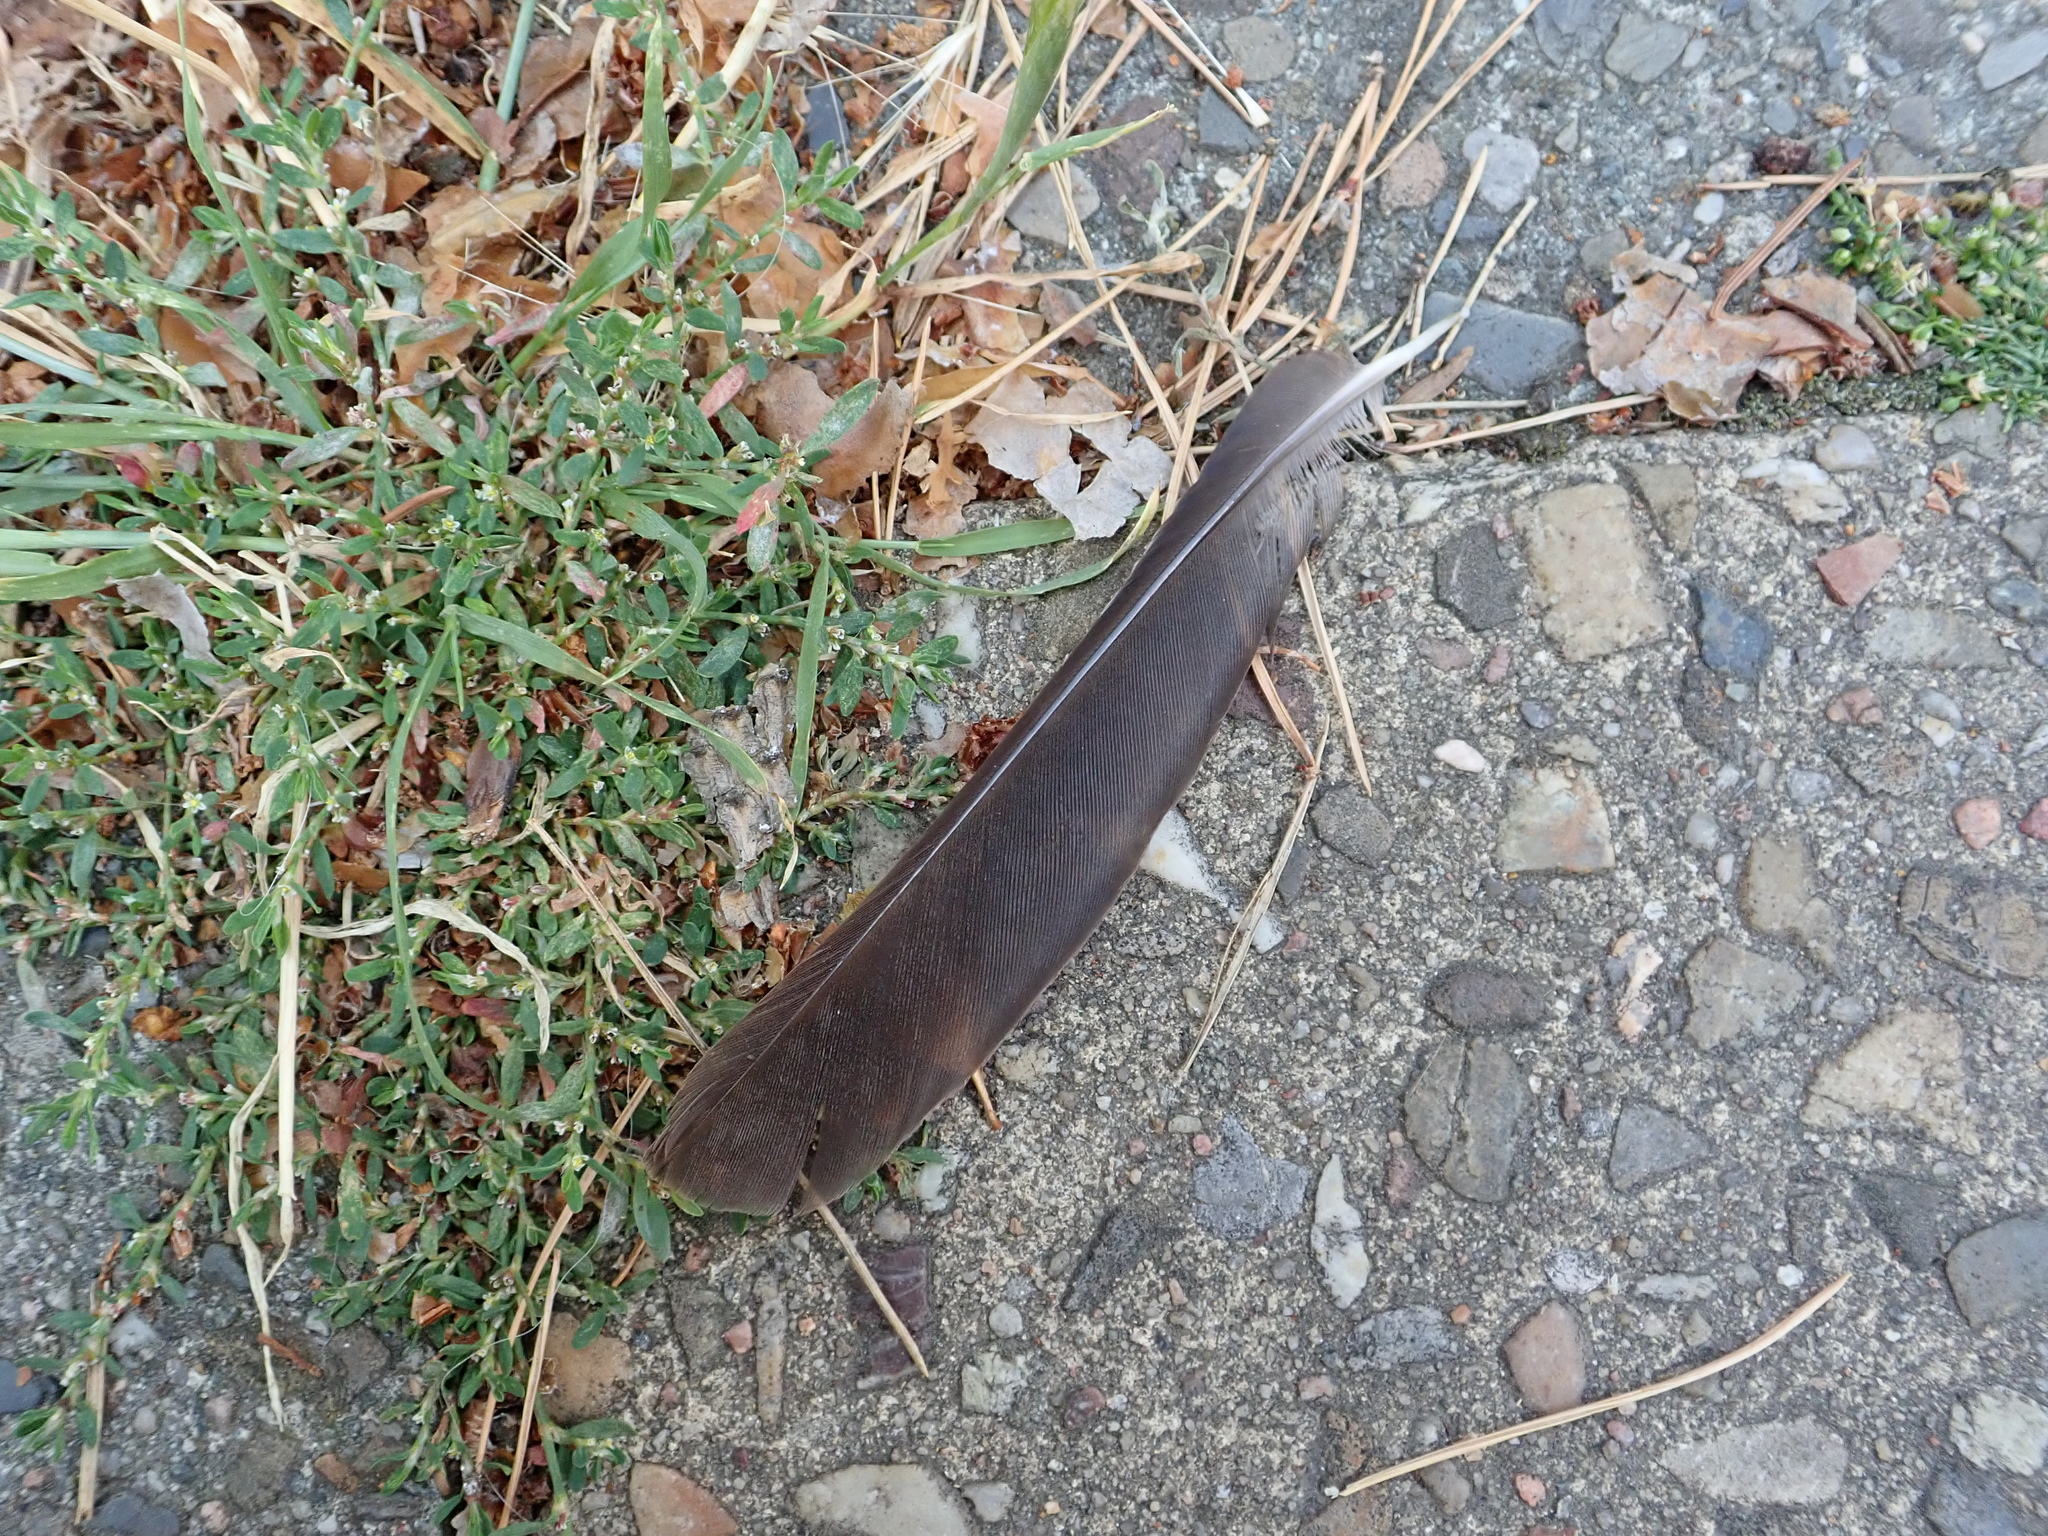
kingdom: Animalia
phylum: Chordata
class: Aves
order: Passeriformes
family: Turdidae
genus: Turdus
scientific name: Turdus merula
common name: Common blackbird
